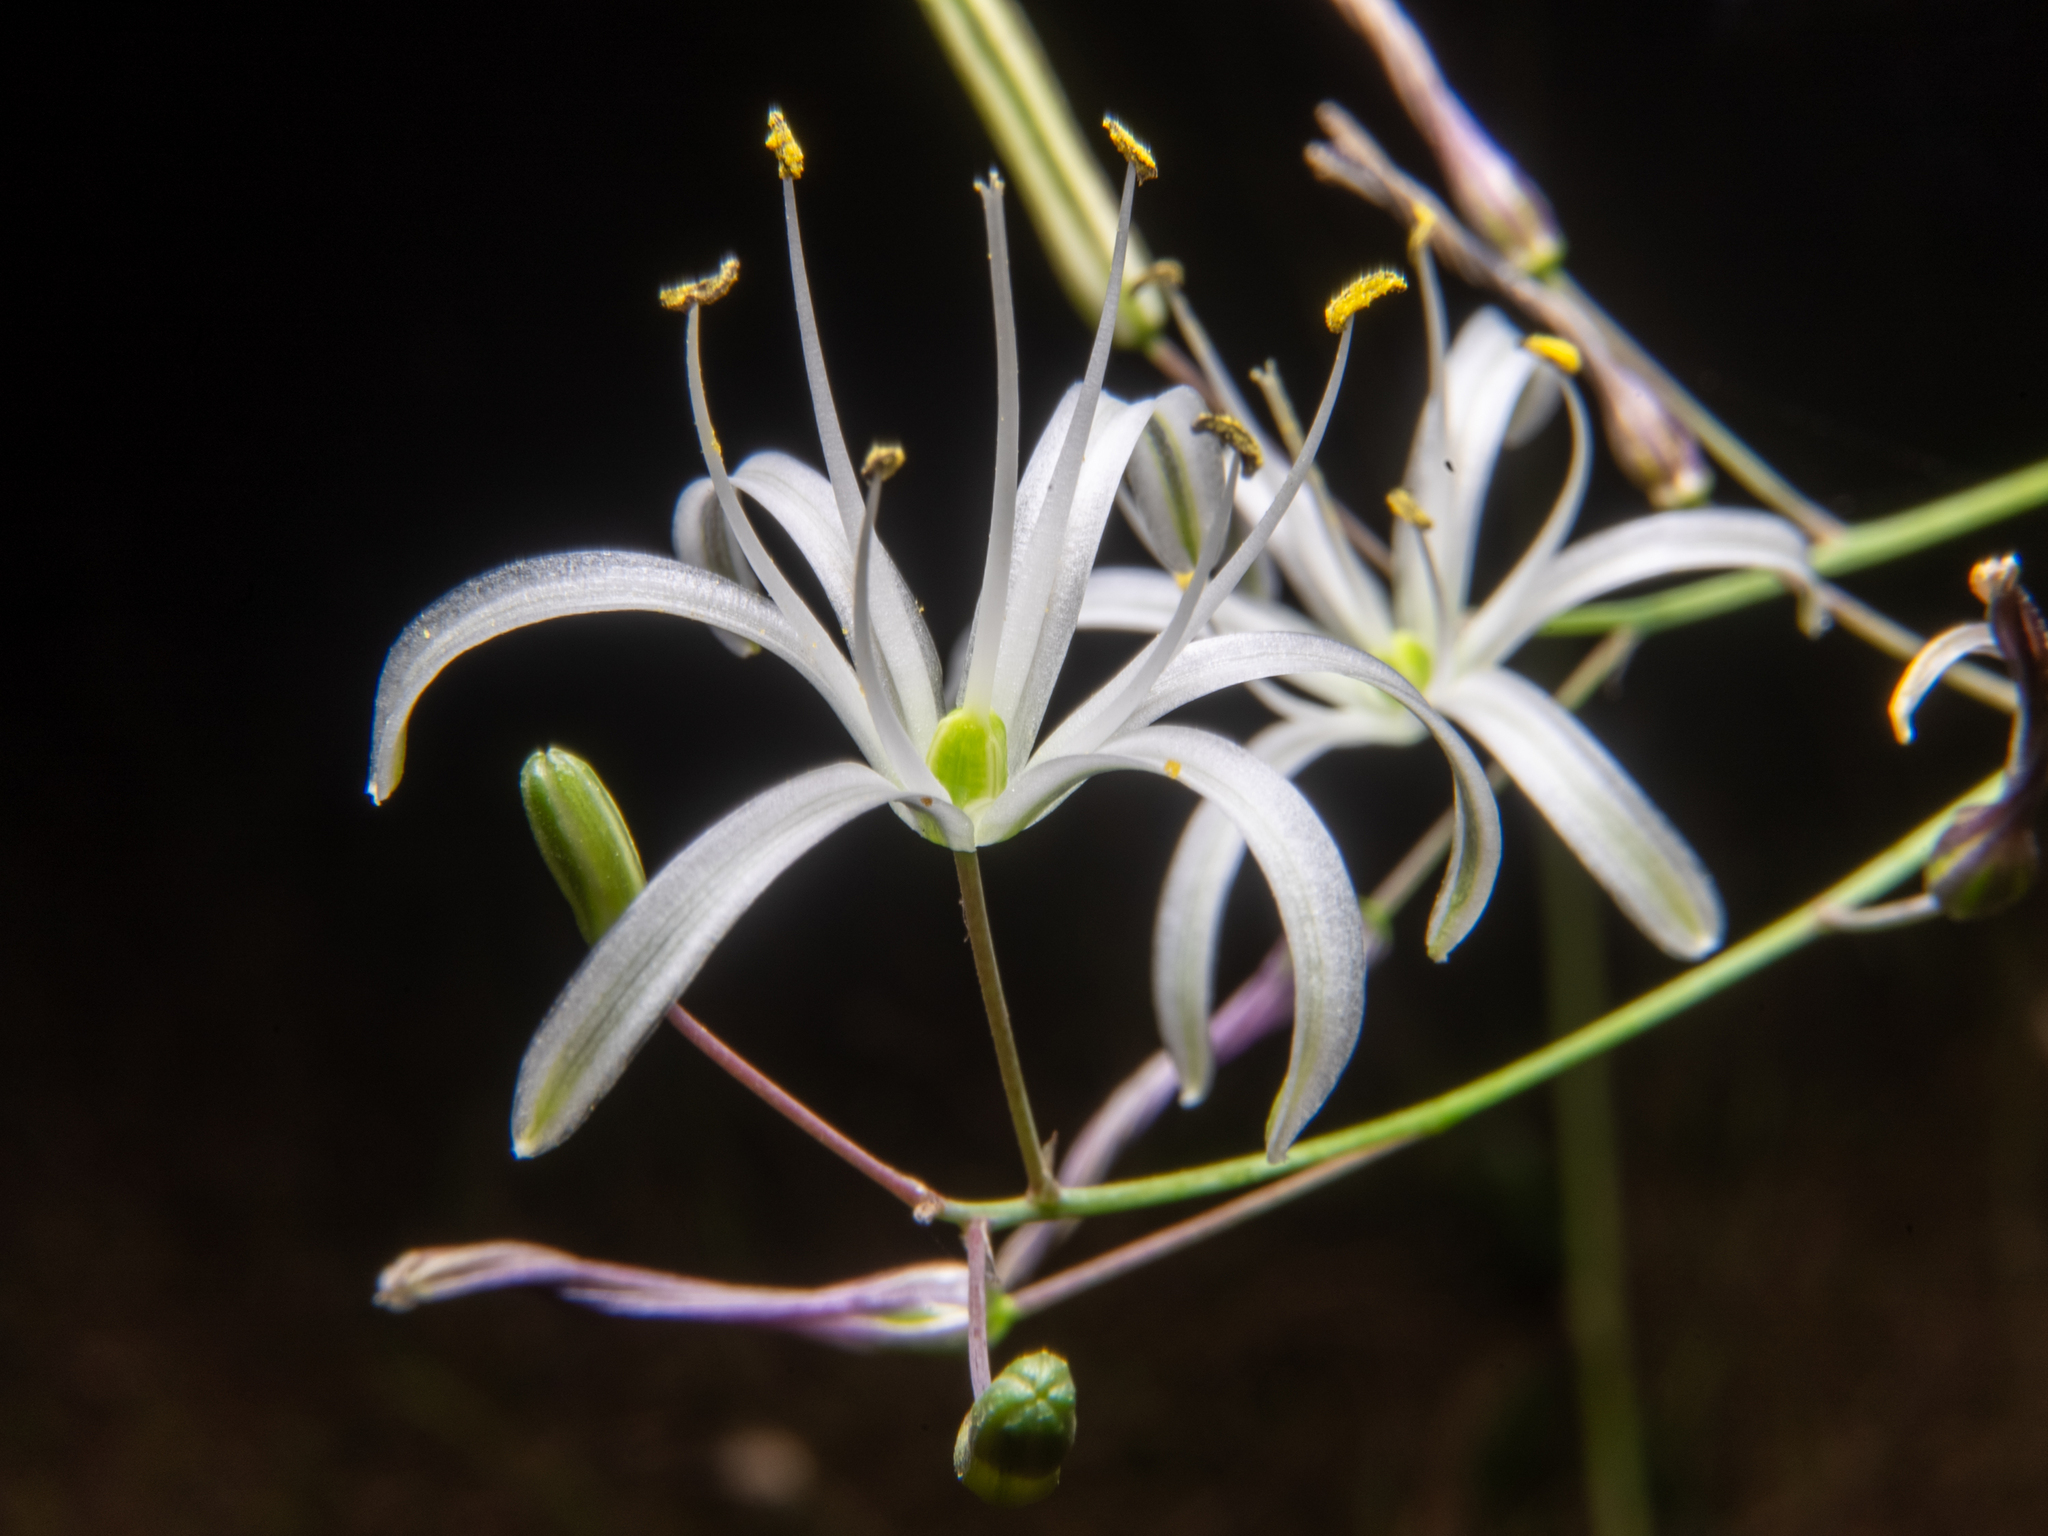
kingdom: Plantae
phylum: Tracheophyta
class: Liliopsida
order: Asparagales
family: Asparagaceae
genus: Chlorogalum
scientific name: Chlorogalum pomeridianum
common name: Amole
